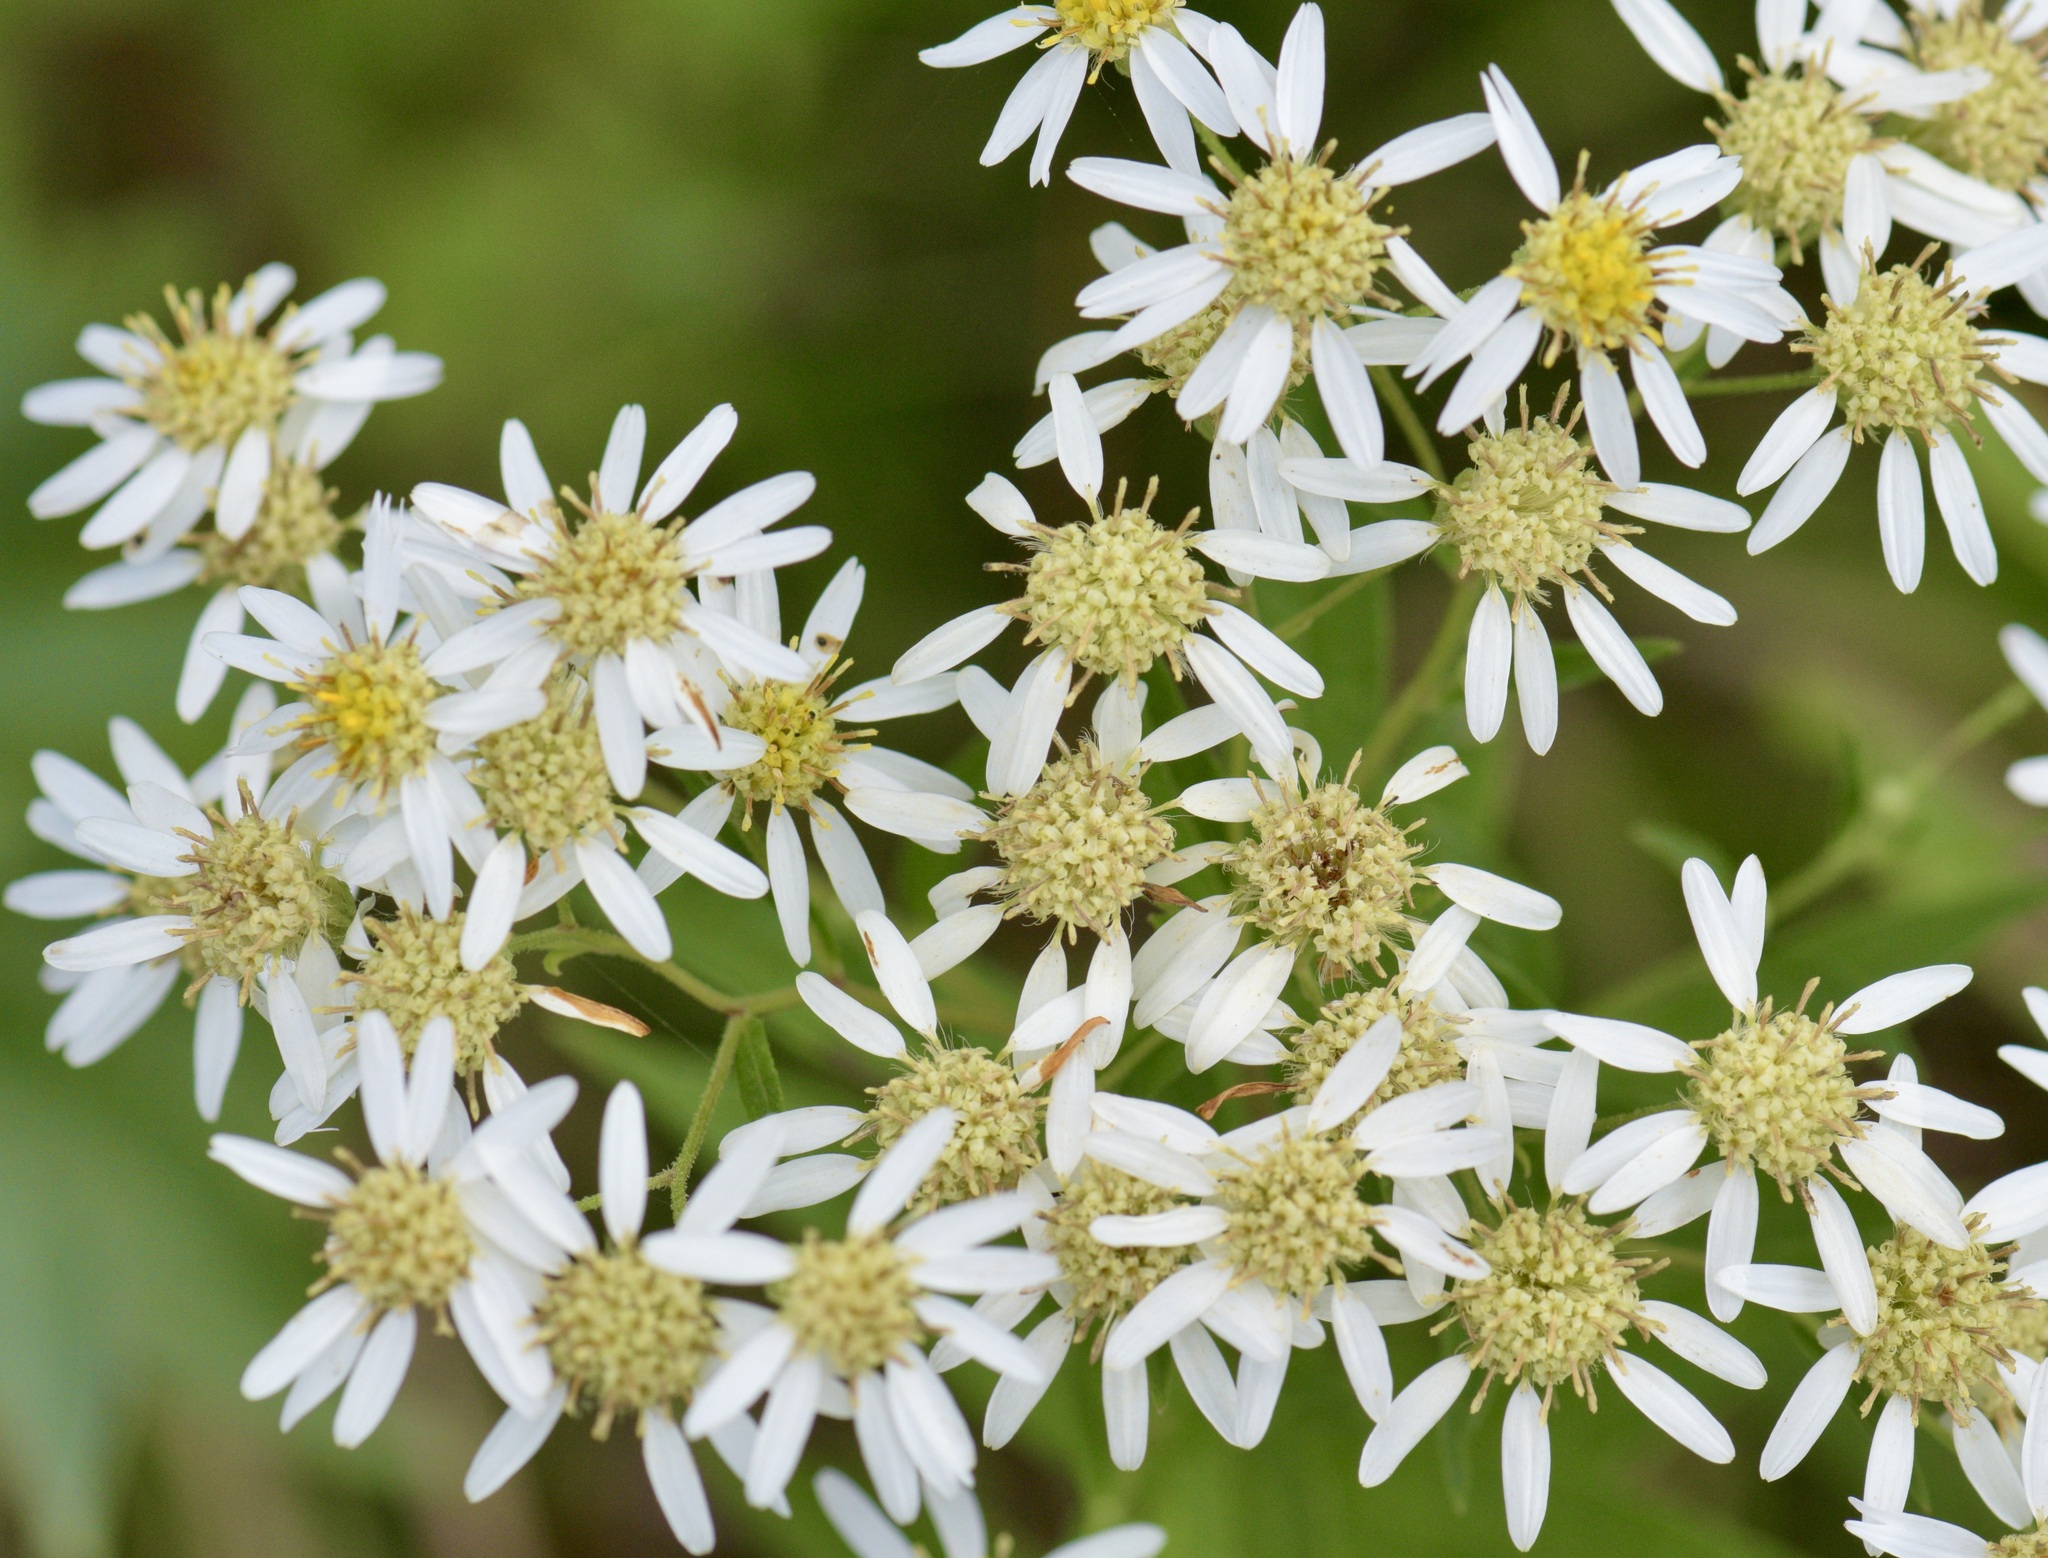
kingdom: Plantae
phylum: Tracheophyta
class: Magnoliopsida
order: Asterales
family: Asteraceae
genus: Doellingeria
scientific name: Doellingeria umbellata
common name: Flat-top white aster
